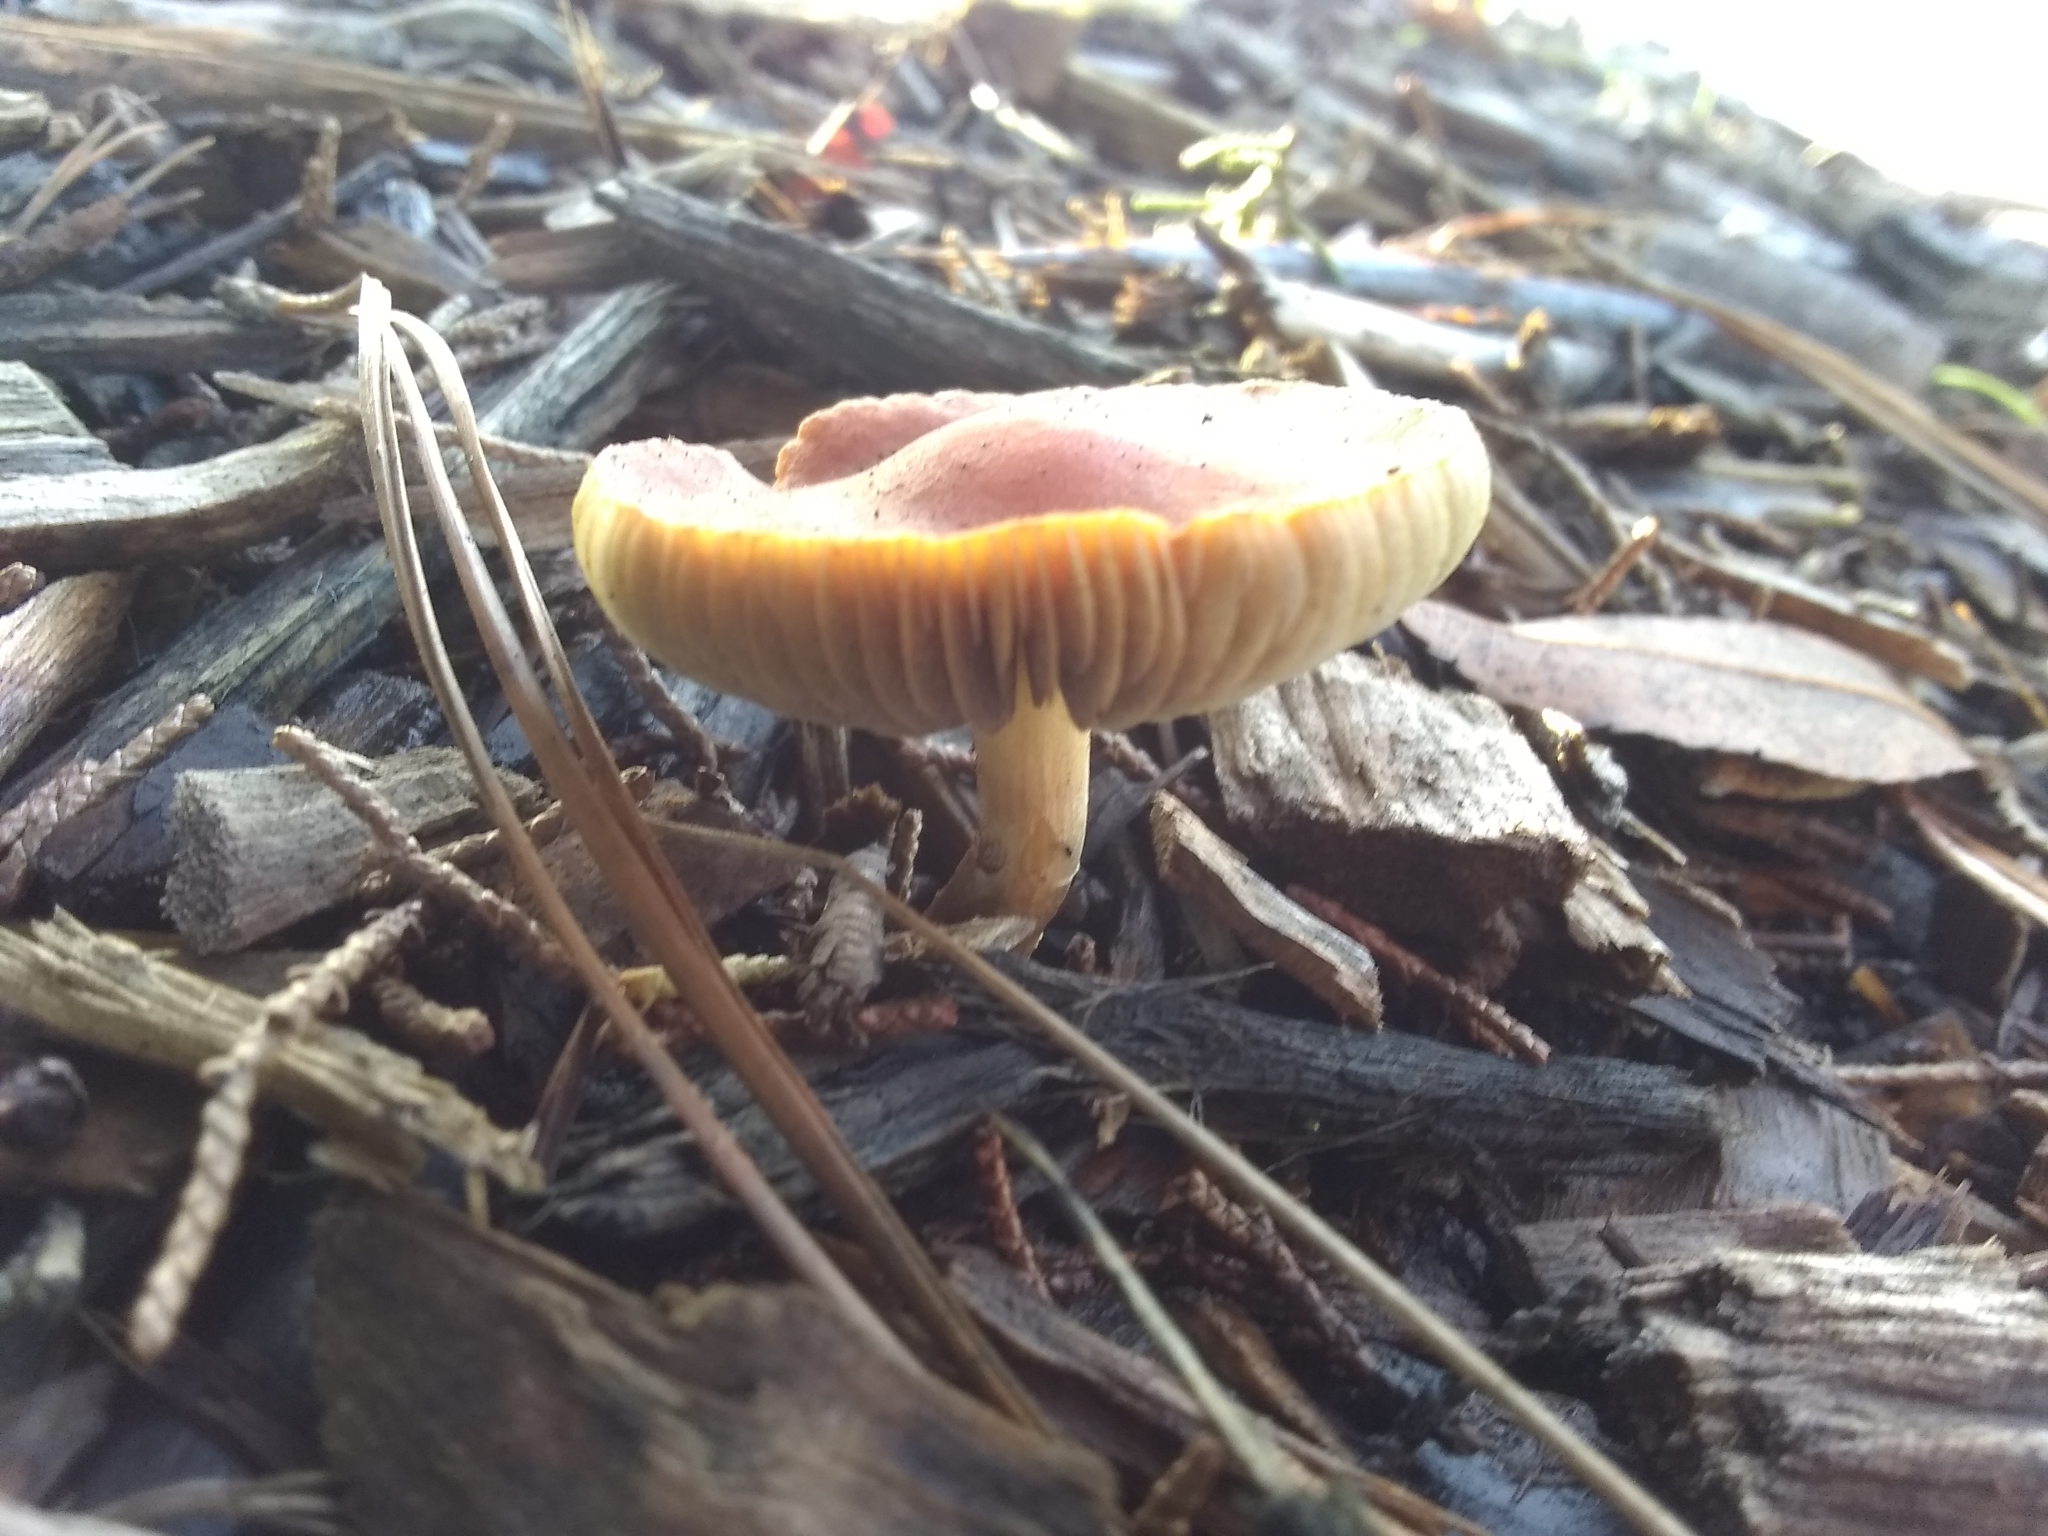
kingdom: Fungi
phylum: Basidiomycota
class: Agaricomycetes
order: Agaricales
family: Strophariaceae
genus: Leratiomyces
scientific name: Leratiomyces ceres
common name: Redlead roundhead
